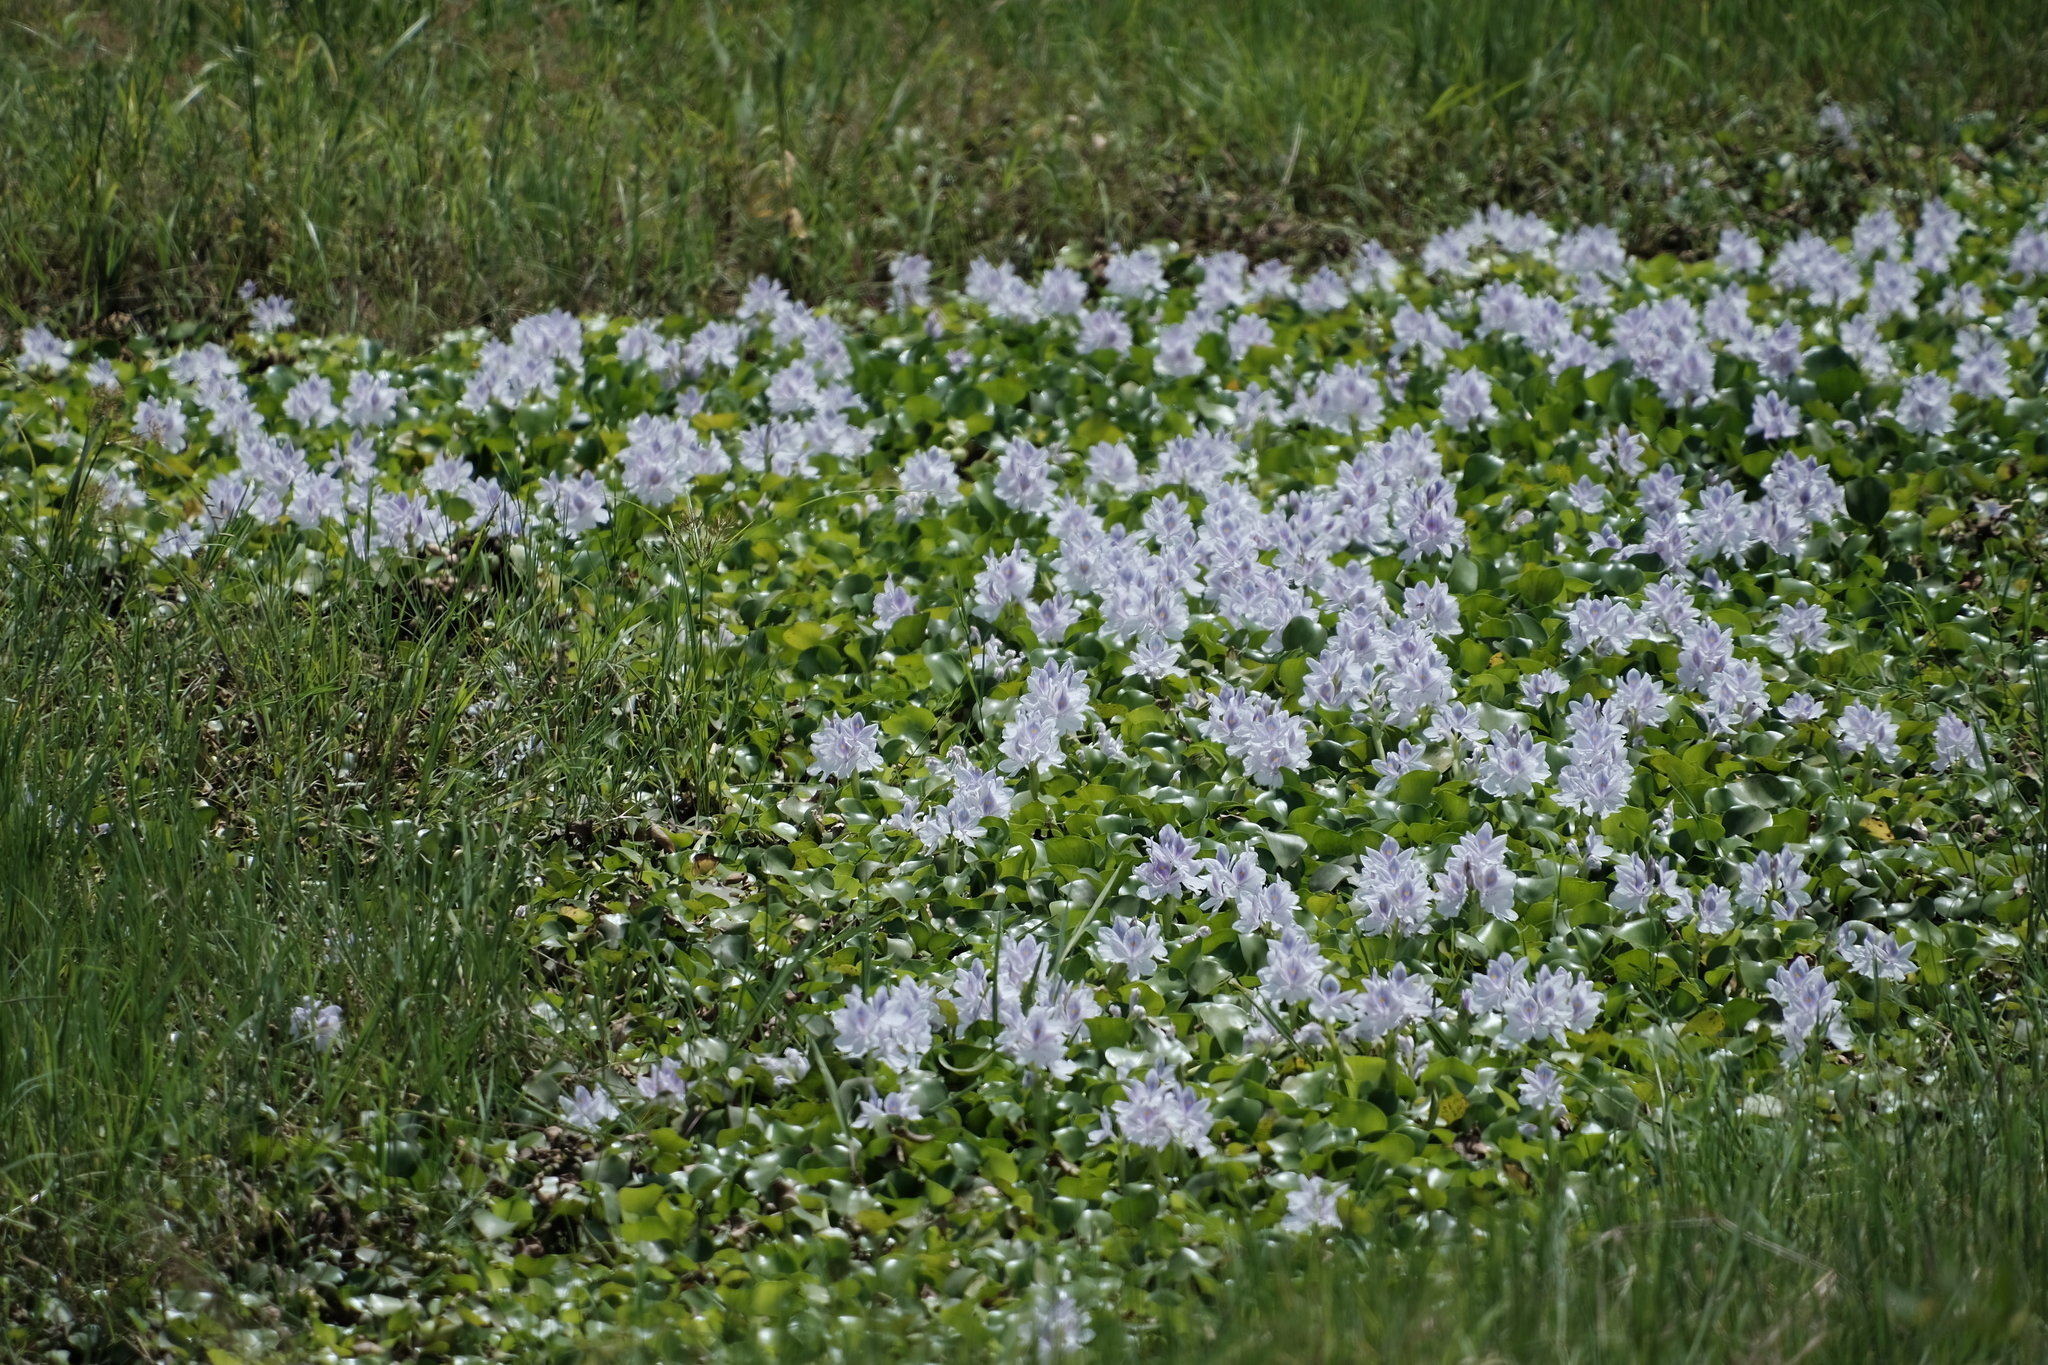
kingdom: Plantae
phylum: Tracheophyta
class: Liliopsida
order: Commelinales
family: Pontederiaceae
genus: Pontederia
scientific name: Pontederia crassipes
